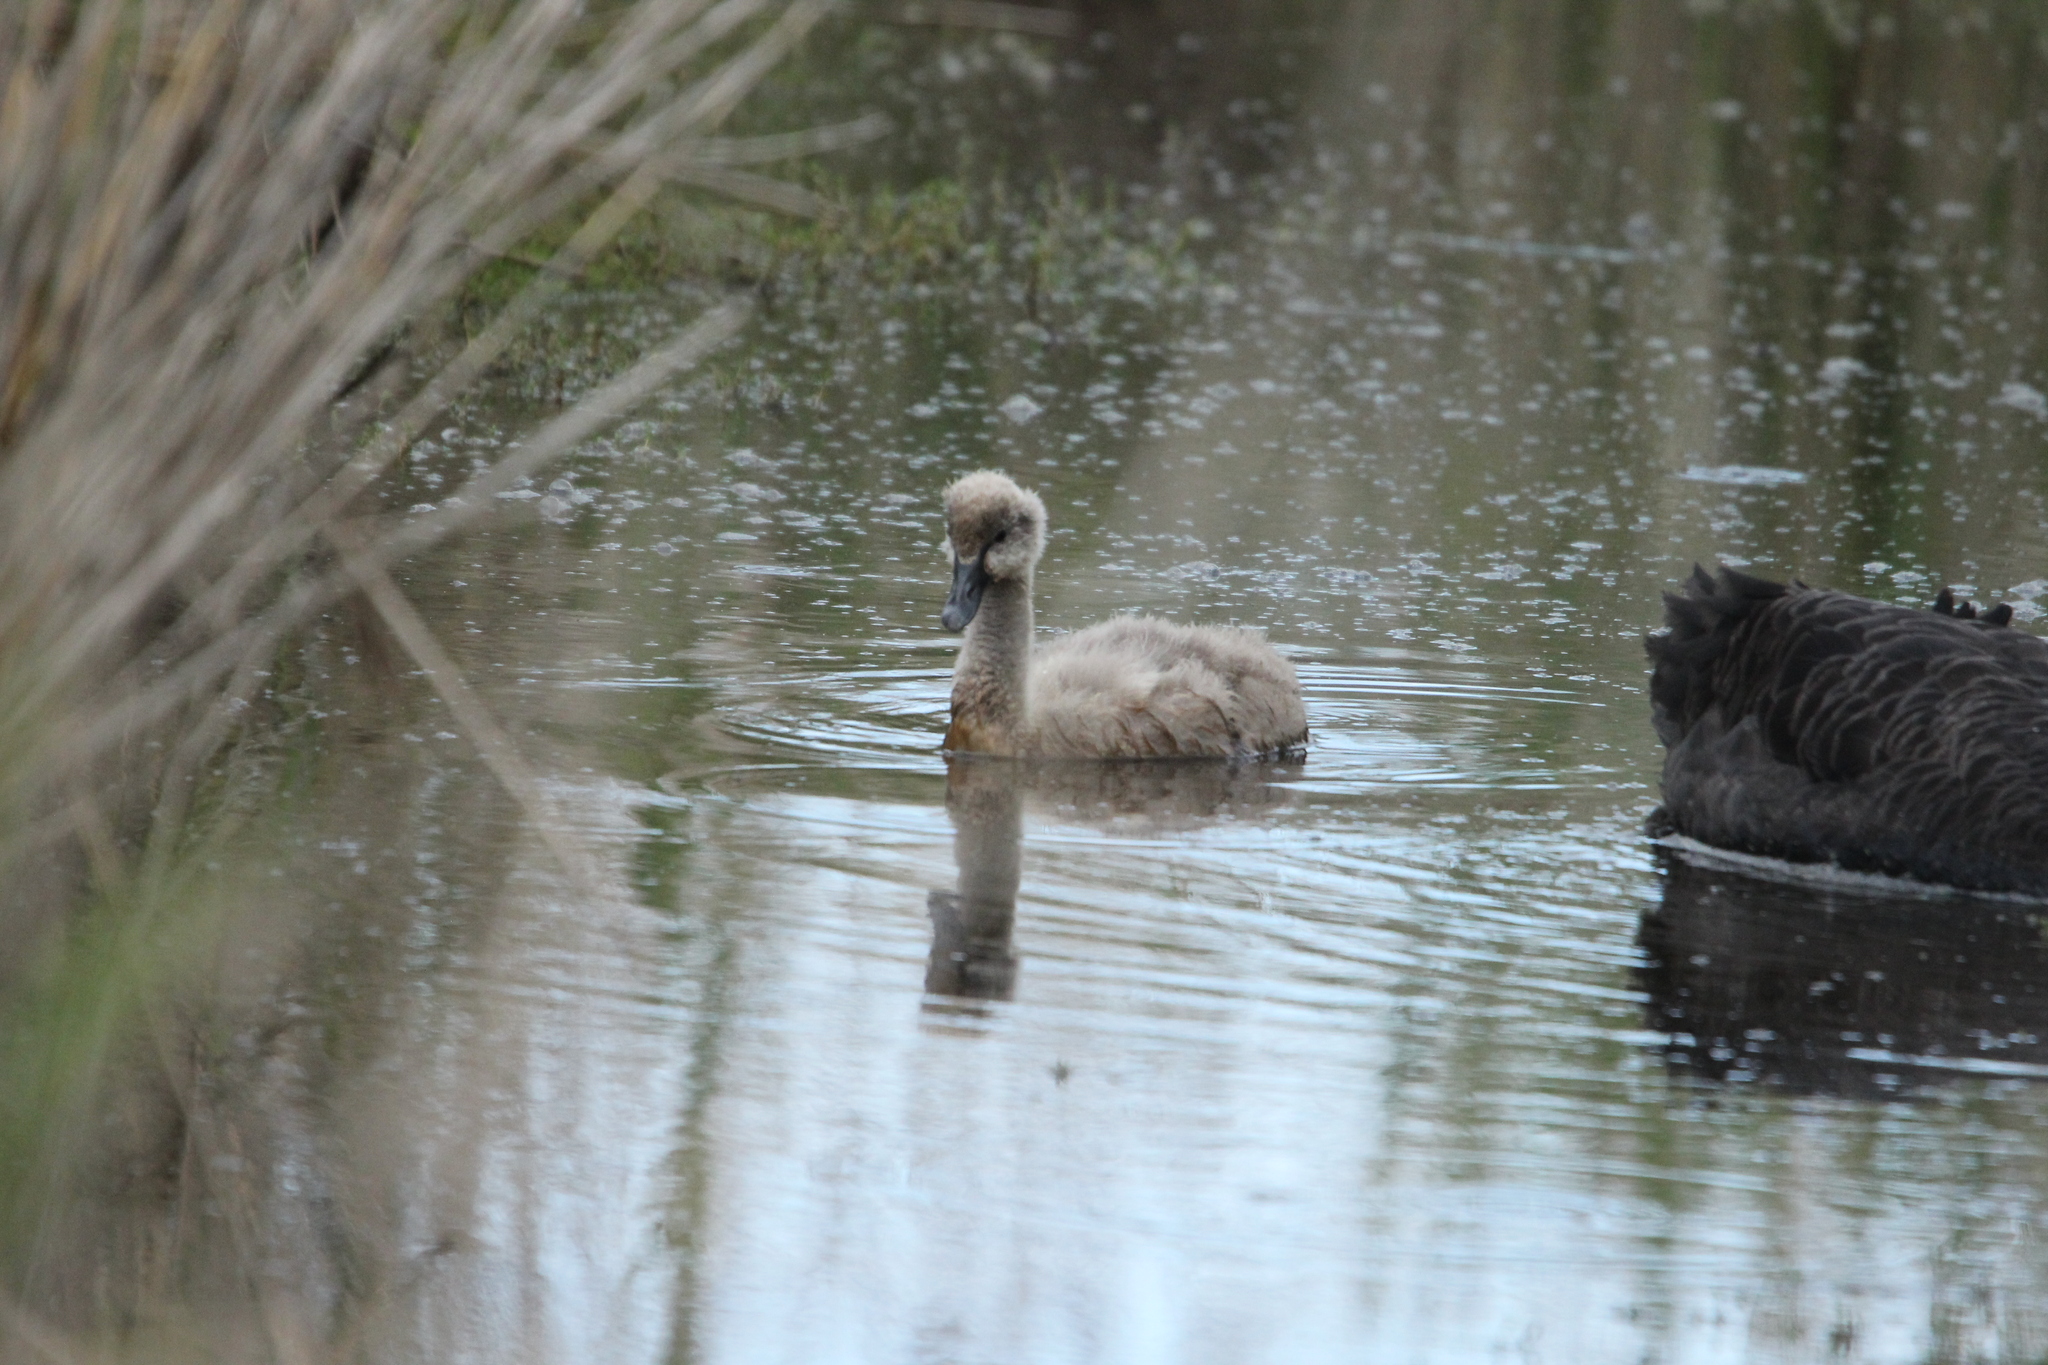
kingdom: Animalia
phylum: Chordata
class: Aves
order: Anseriformes
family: Anatidae
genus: Cygnus
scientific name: Cygnus atratus
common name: Black swan
